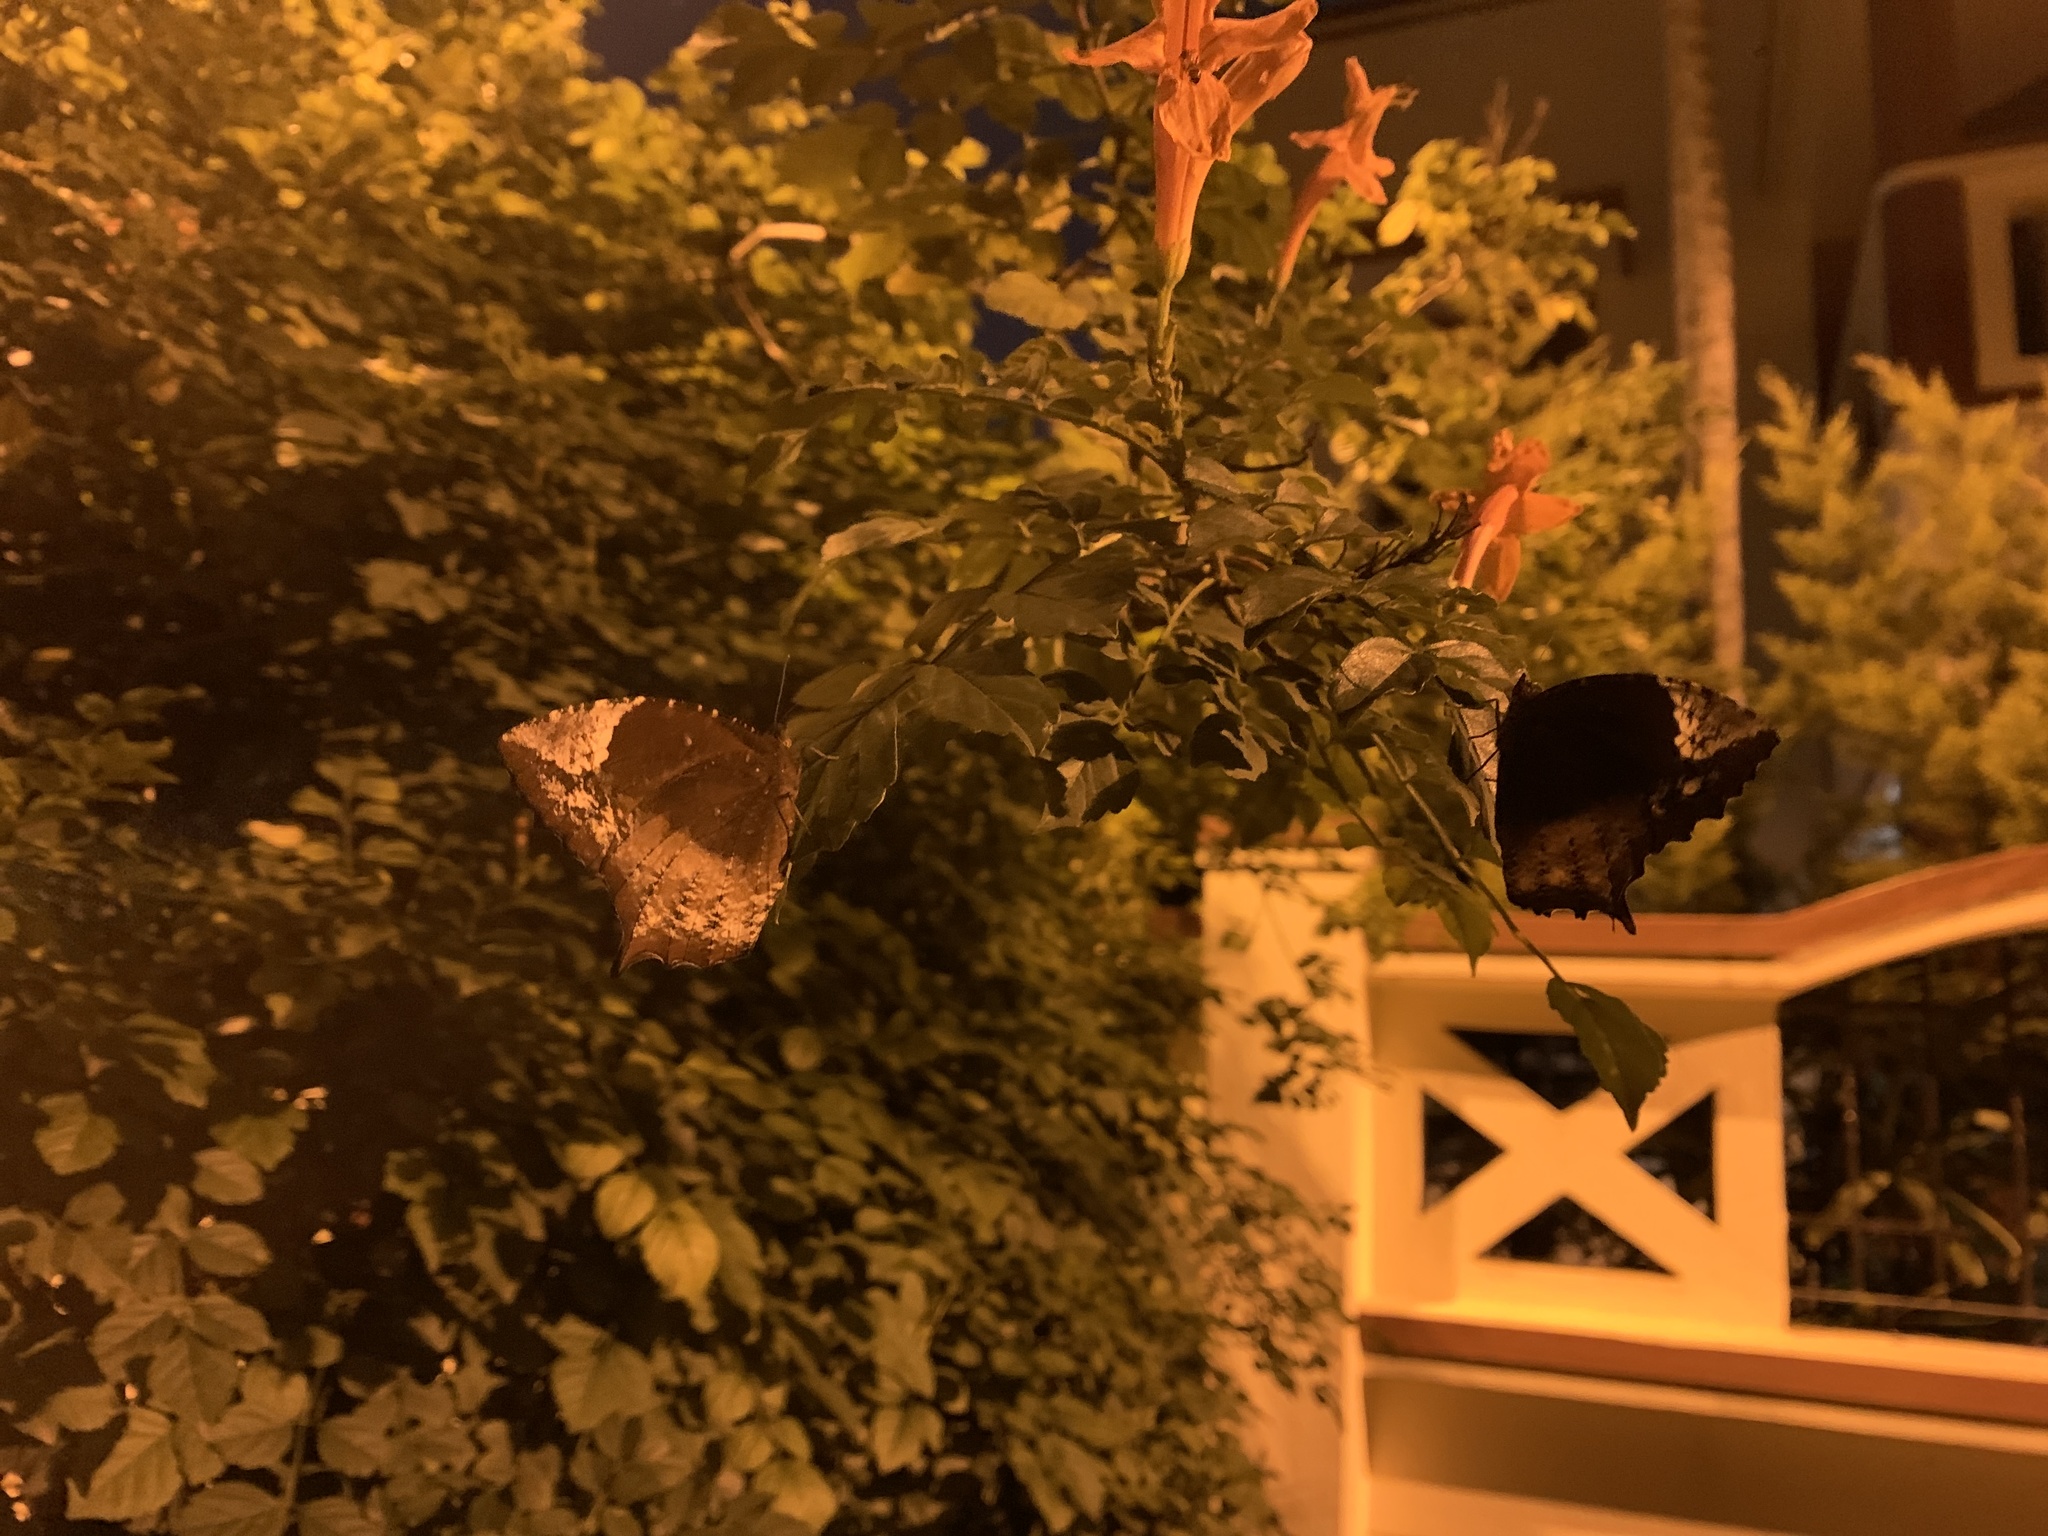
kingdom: Animalia
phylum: Arthropoda
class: Insecta
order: Lepidoptera
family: Nymphalidae
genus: Elymnias
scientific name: Elymnias caudata
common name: Tailed palmfly
